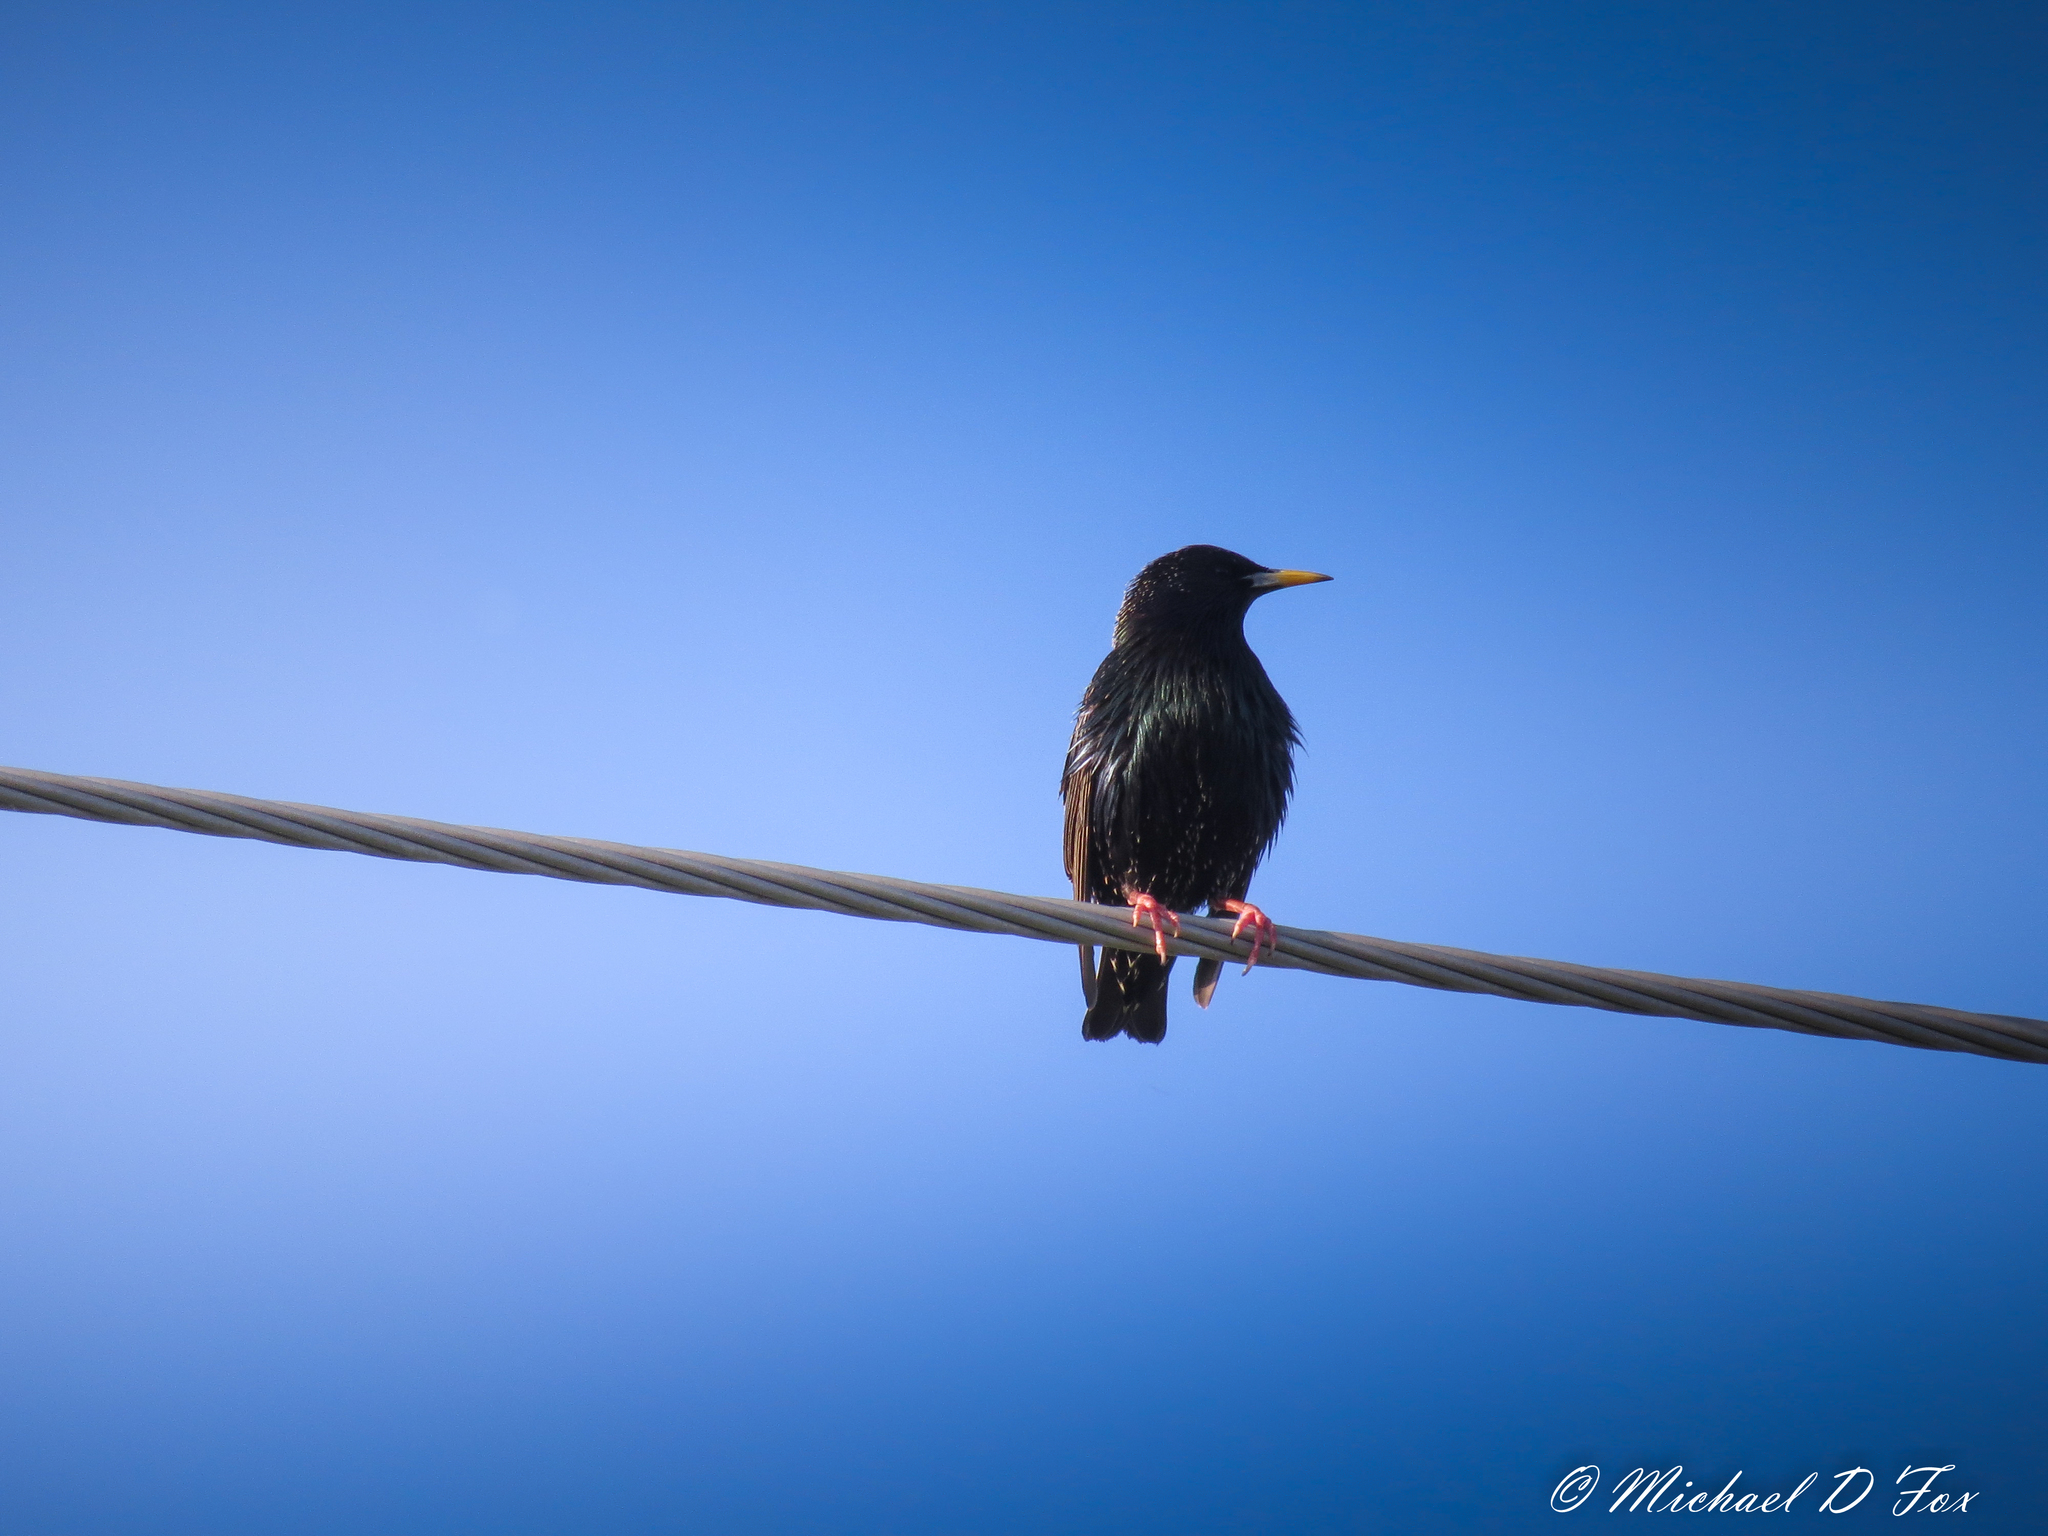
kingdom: Animalia
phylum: Chordata
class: Aves
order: Passeriformes
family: Sturnidae
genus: Sturnus
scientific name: Sturnus vulgaris
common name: Common starling
